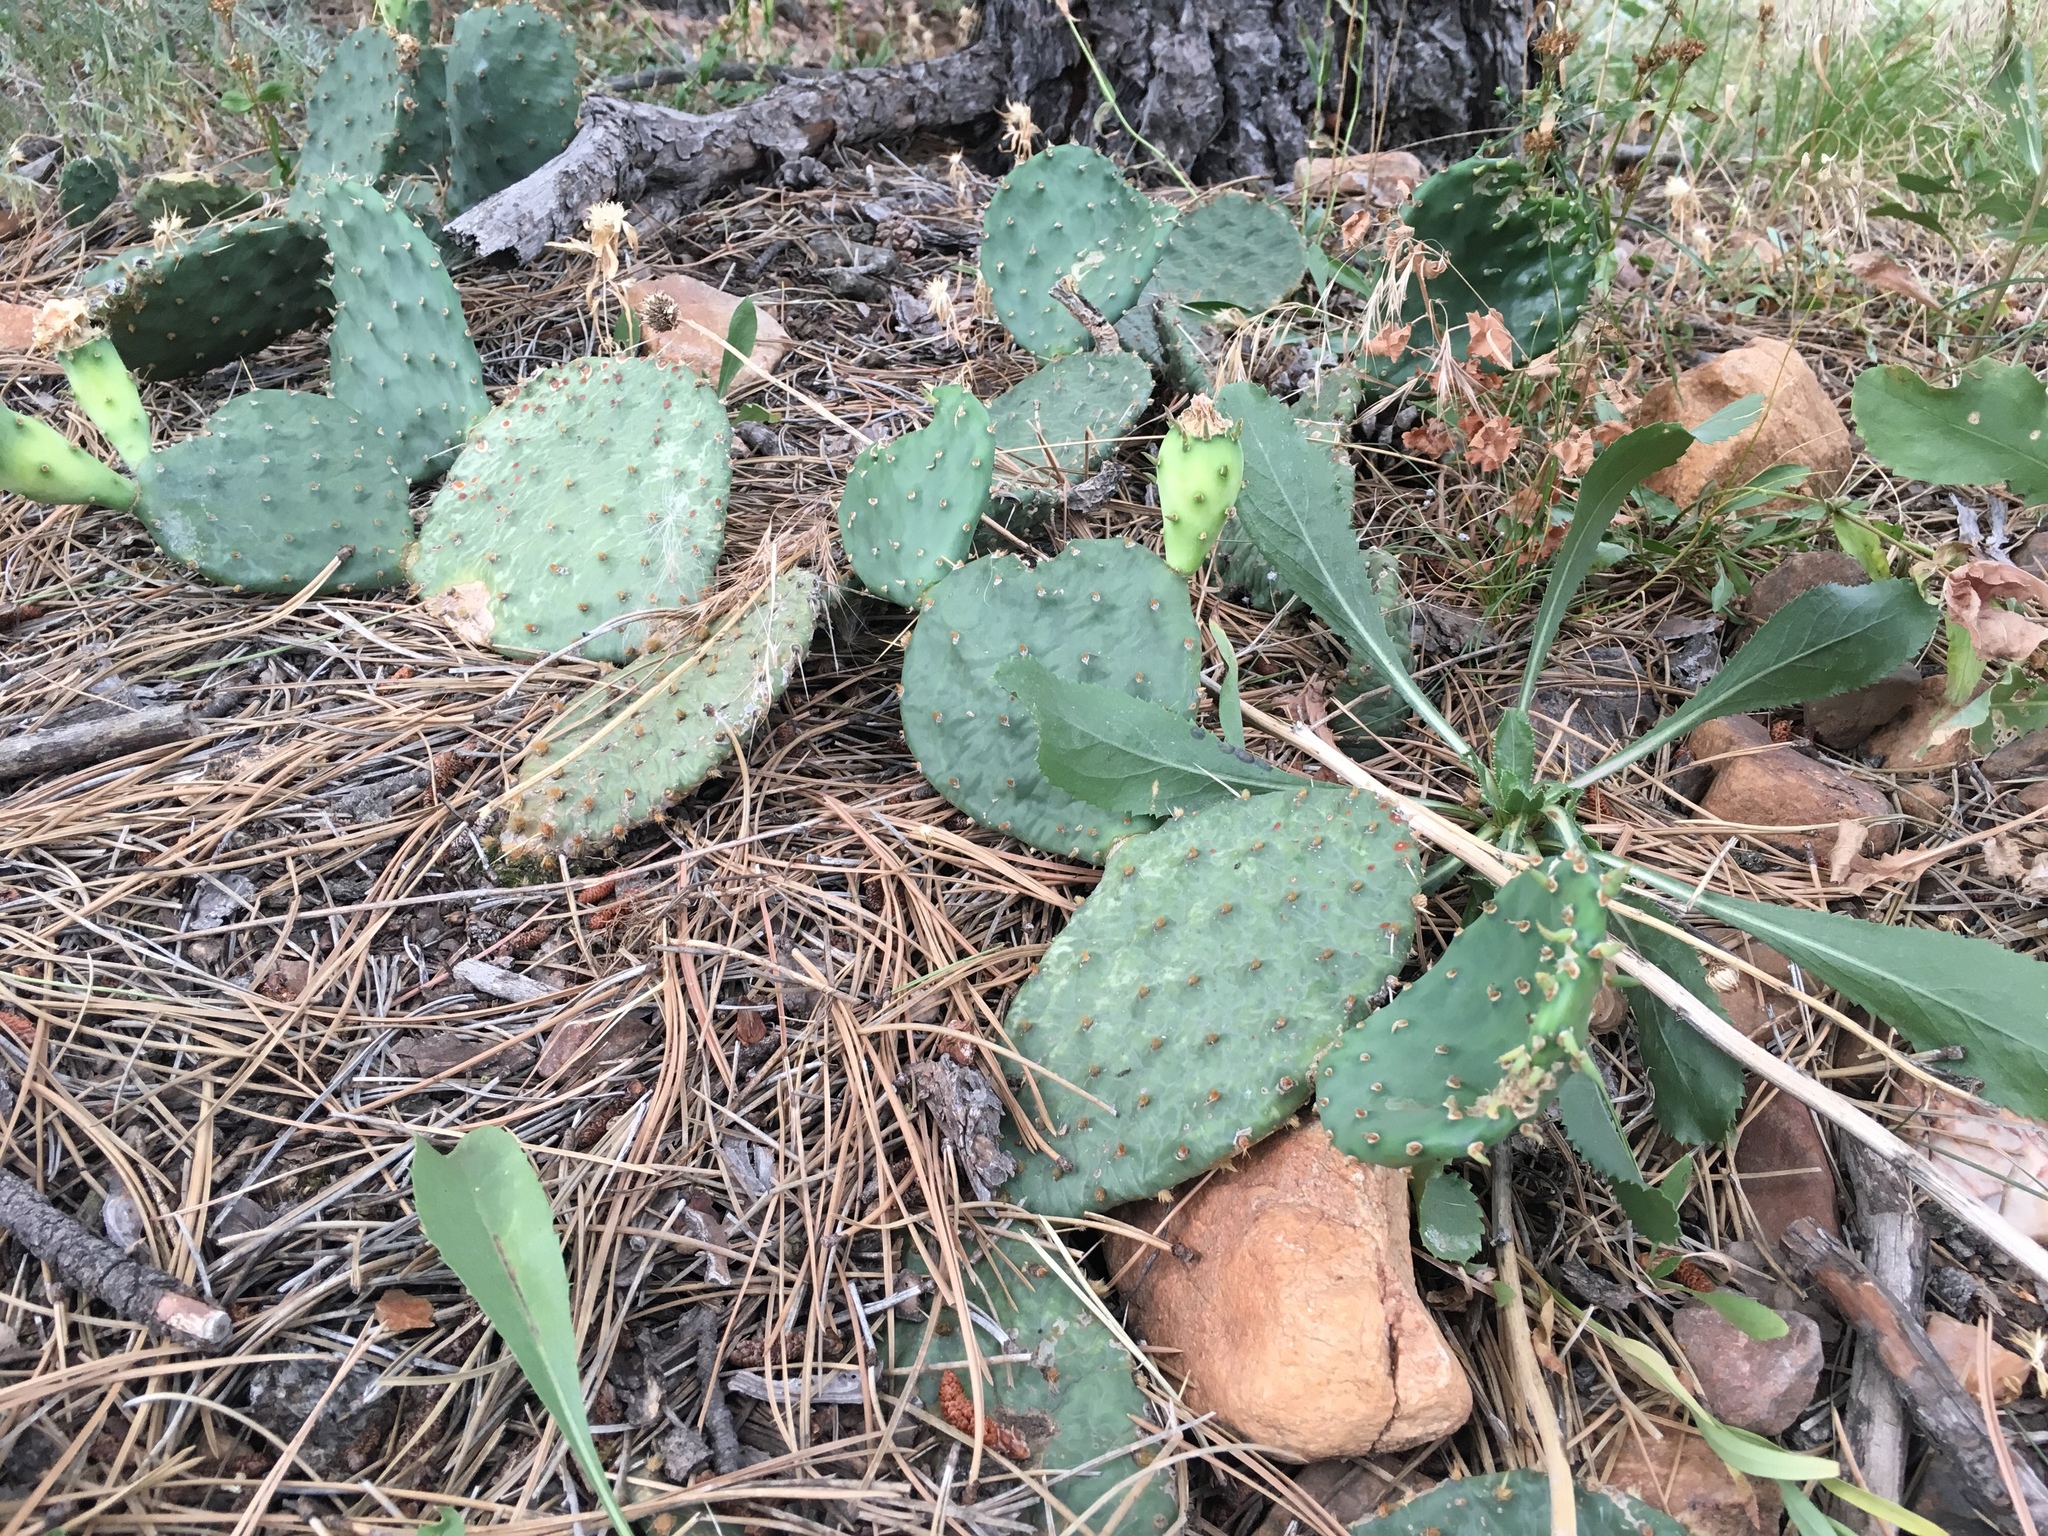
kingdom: Plantae
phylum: Tracheophyta
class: Magnoliopsida
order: Caryophyllales
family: Cactaceae
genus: Opuntia
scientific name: Opuntia macrorhiza
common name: Grassland pricklypear
